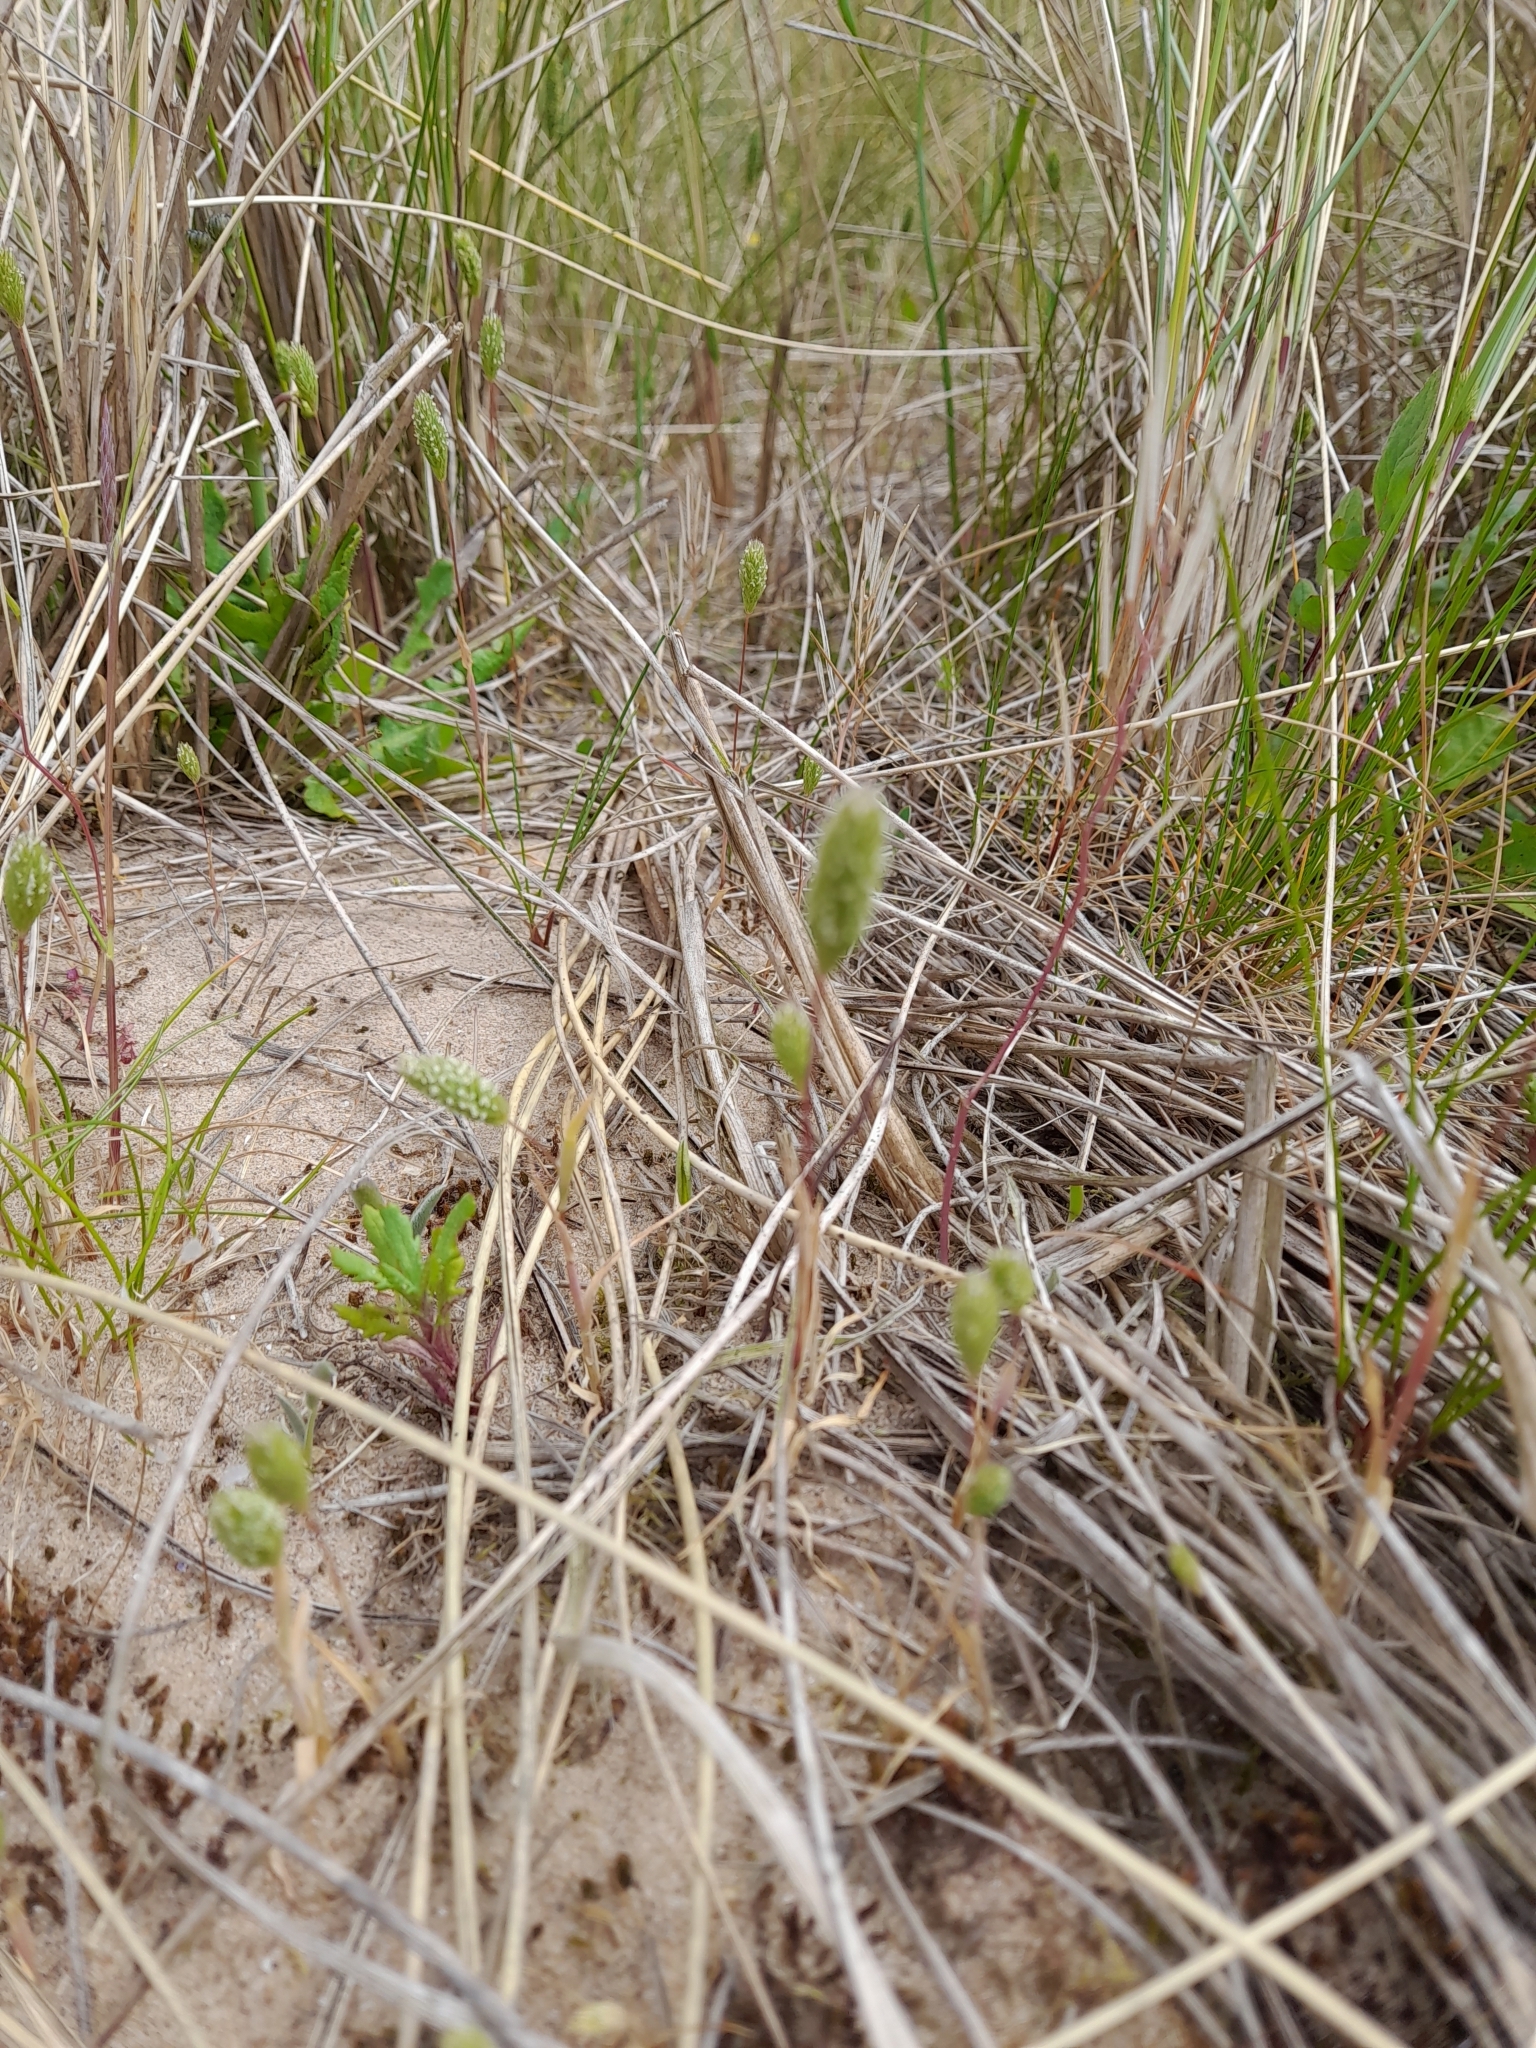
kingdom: Plantae
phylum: Tracheophyta
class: Liliopsida
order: Poales
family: Poaceae
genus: Phleum
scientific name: Phleum arenarium
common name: Sand cat's-tail
